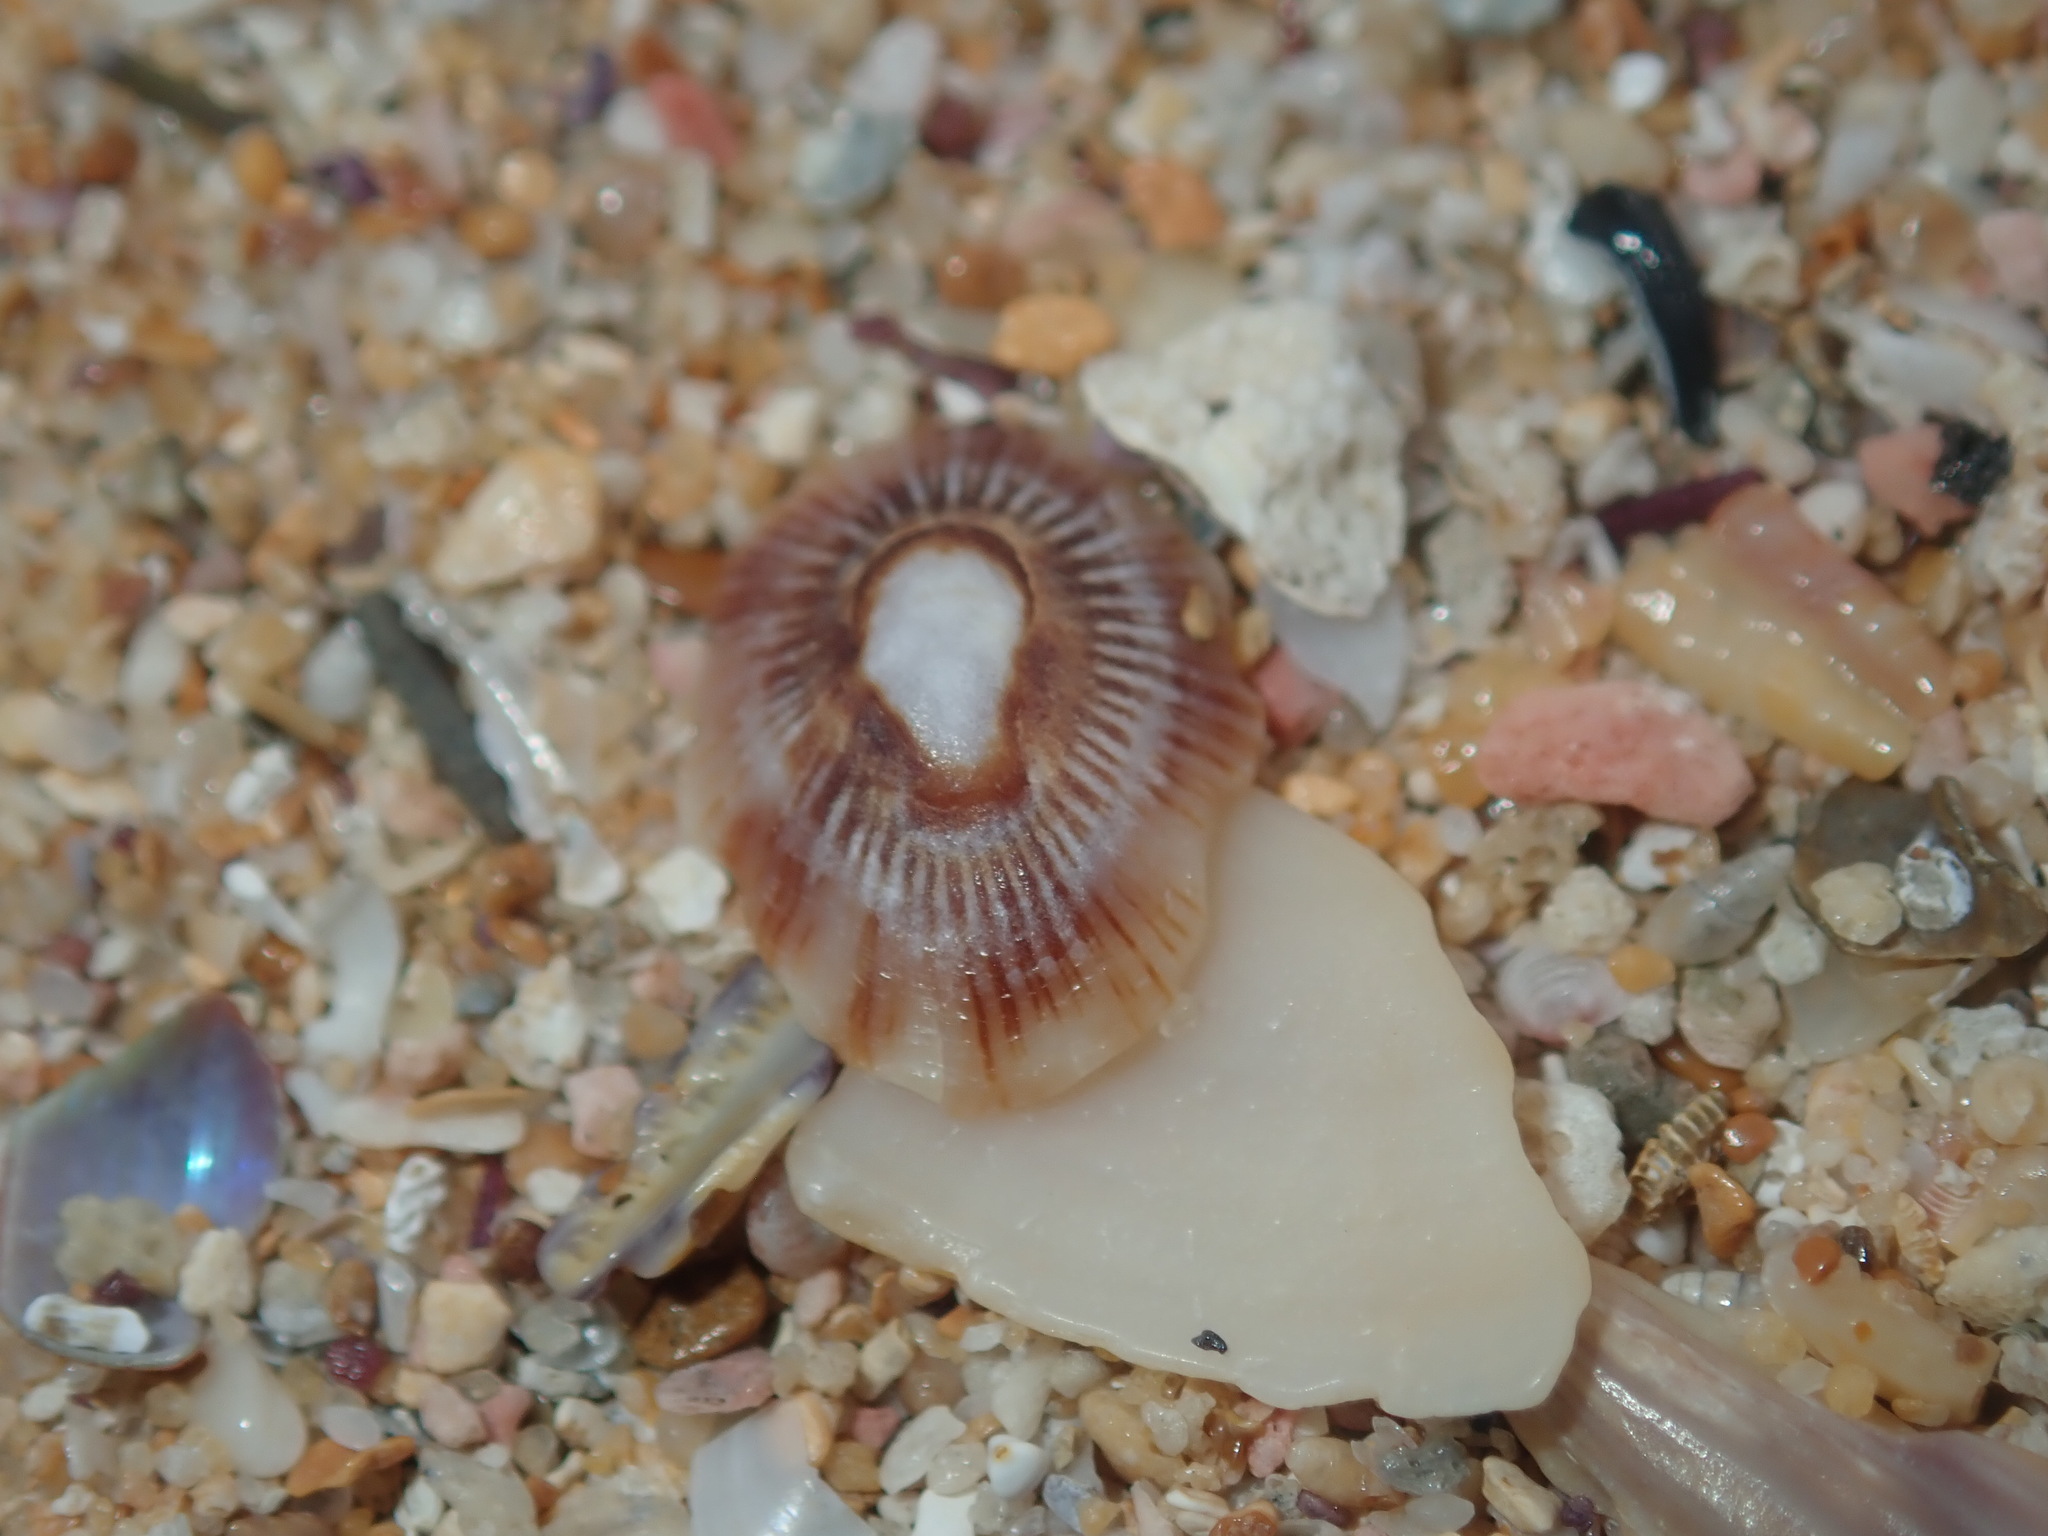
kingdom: Animalia
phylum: Mollusca
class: Gastropoda
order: Siphonariida
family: Siphonariidae
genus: Siphonaria
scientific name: Siphonaria funiculata
